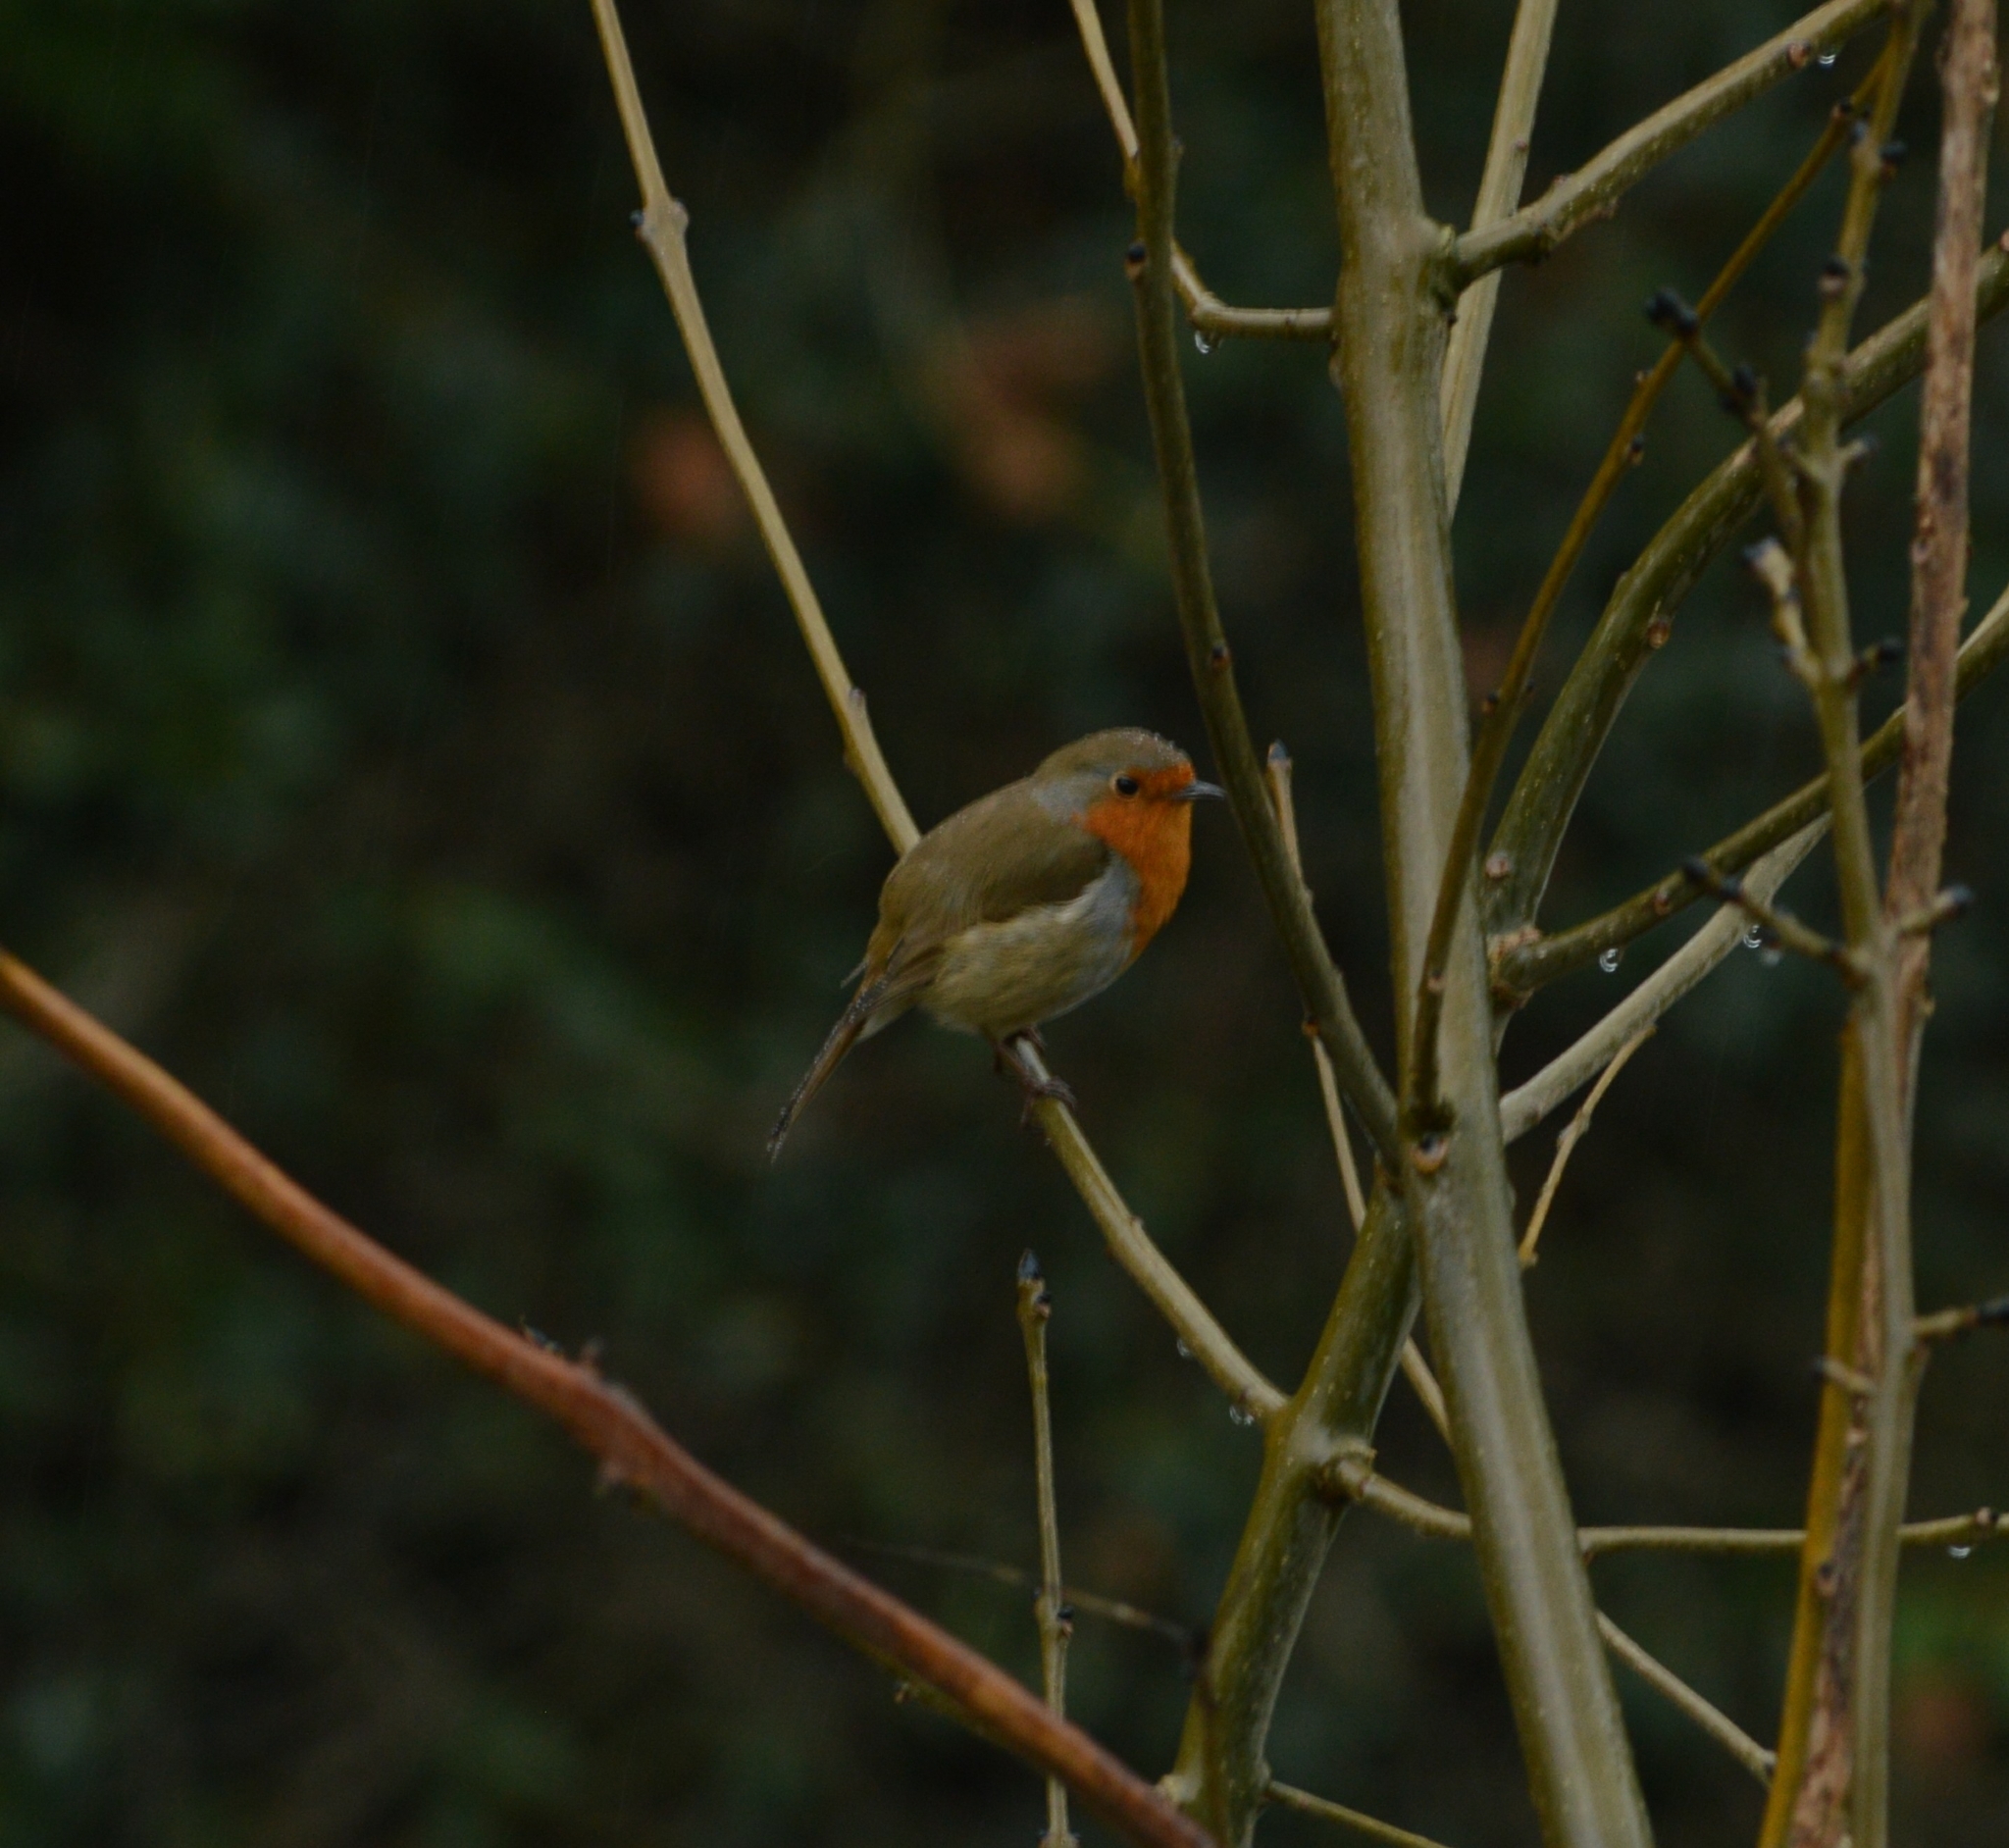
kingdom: Animalia
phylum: Chordata
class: Aves
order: Passeriformes
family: Muscicapidae
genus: Erithacus
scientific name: Erithacus rubecula
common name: European robin
